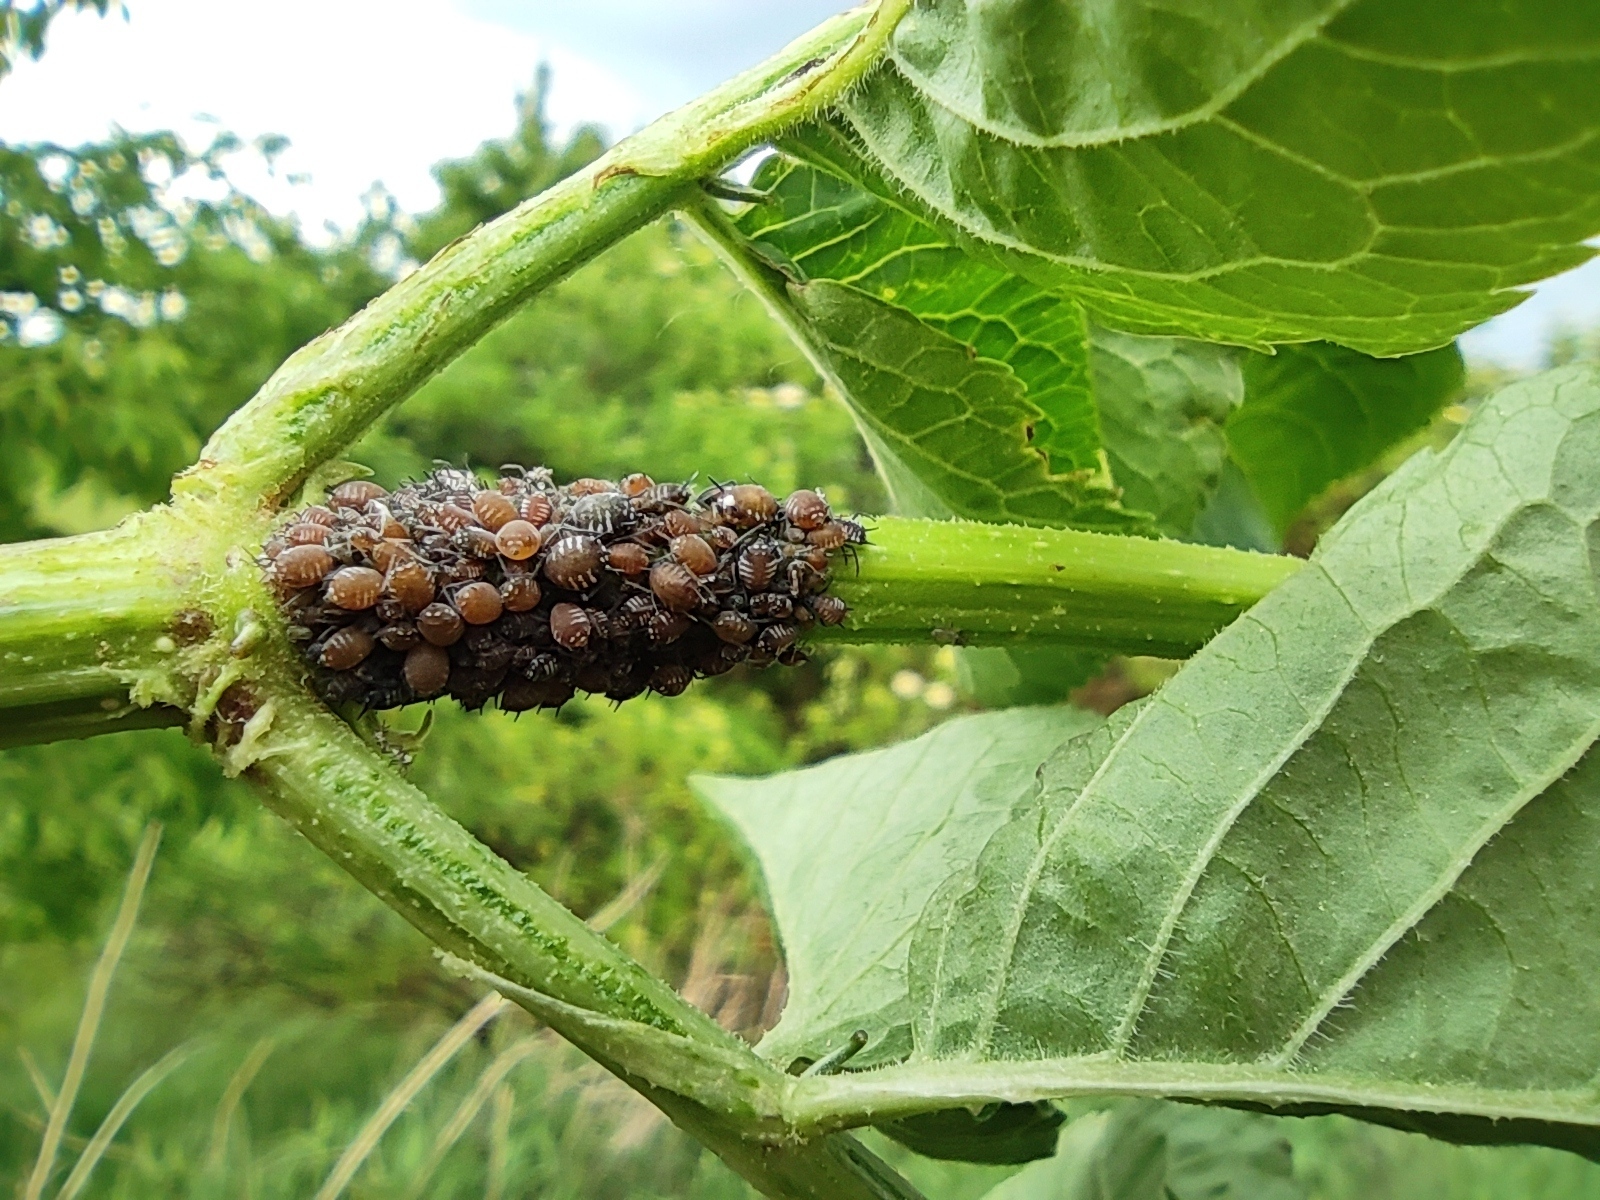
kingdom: Animalia
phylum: Arthropoda
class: Insecta
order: Hemiptera
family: Aphididae
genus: Aphis
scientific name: Aphis sambuci
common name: Elder aphid
